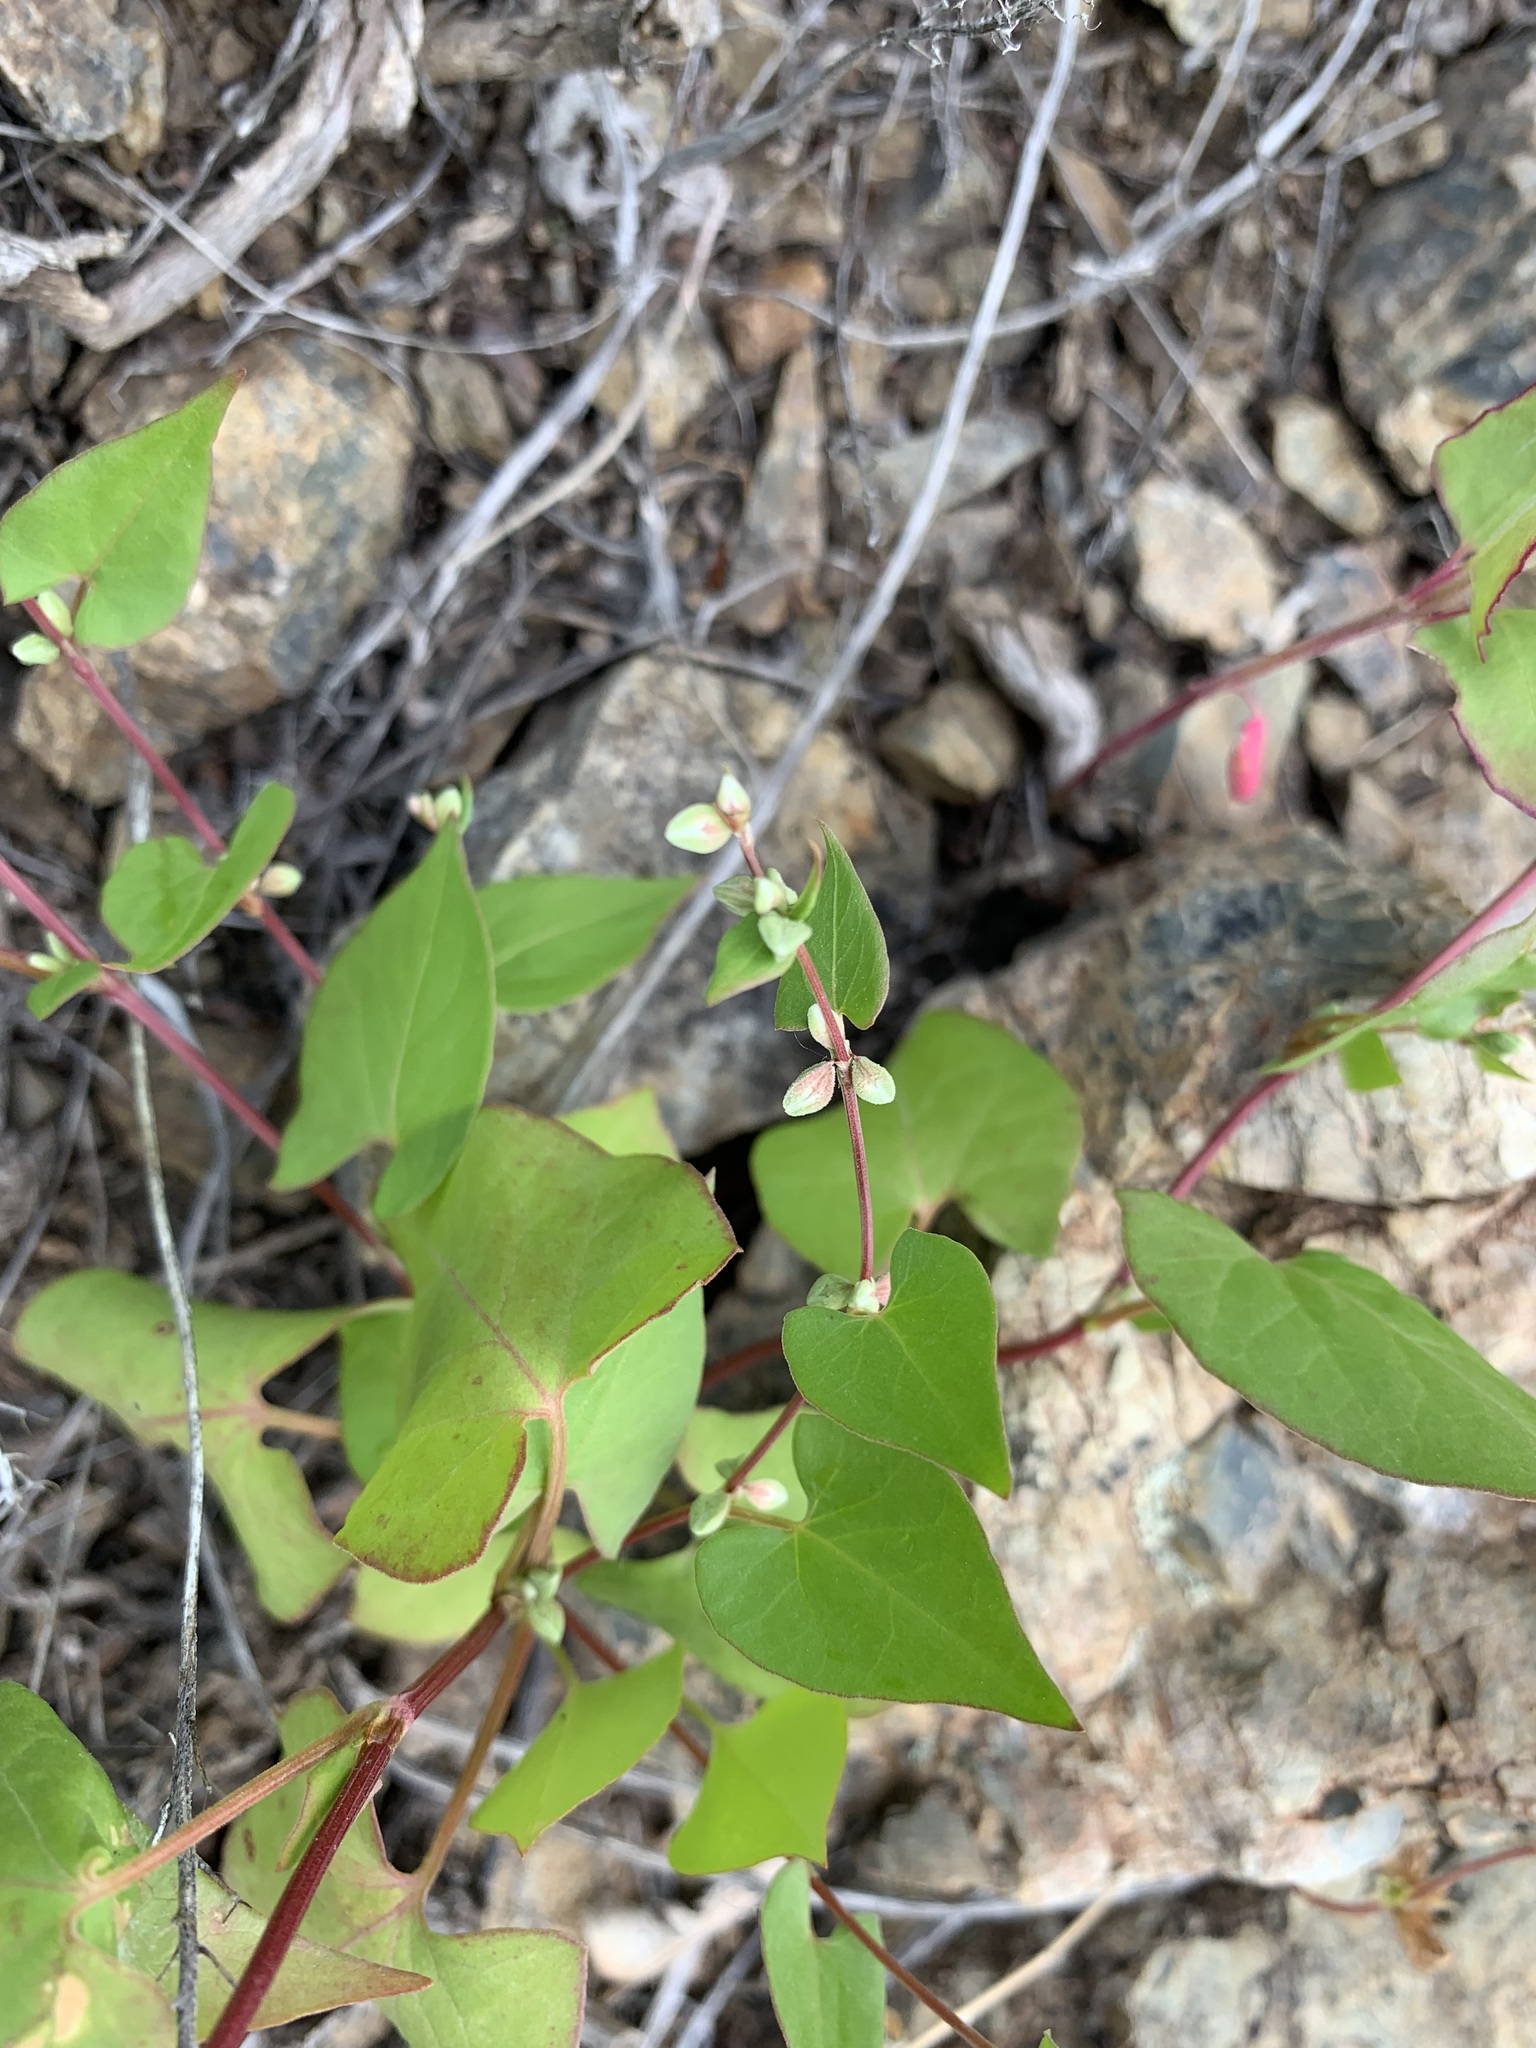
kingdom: Plantae
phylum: Tracheophyta
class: Magnoliopsida
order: Caryophyllales
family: Polygonaceae
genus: Fallopia
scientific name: Fallopia convolvulus
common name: Black bindweed
